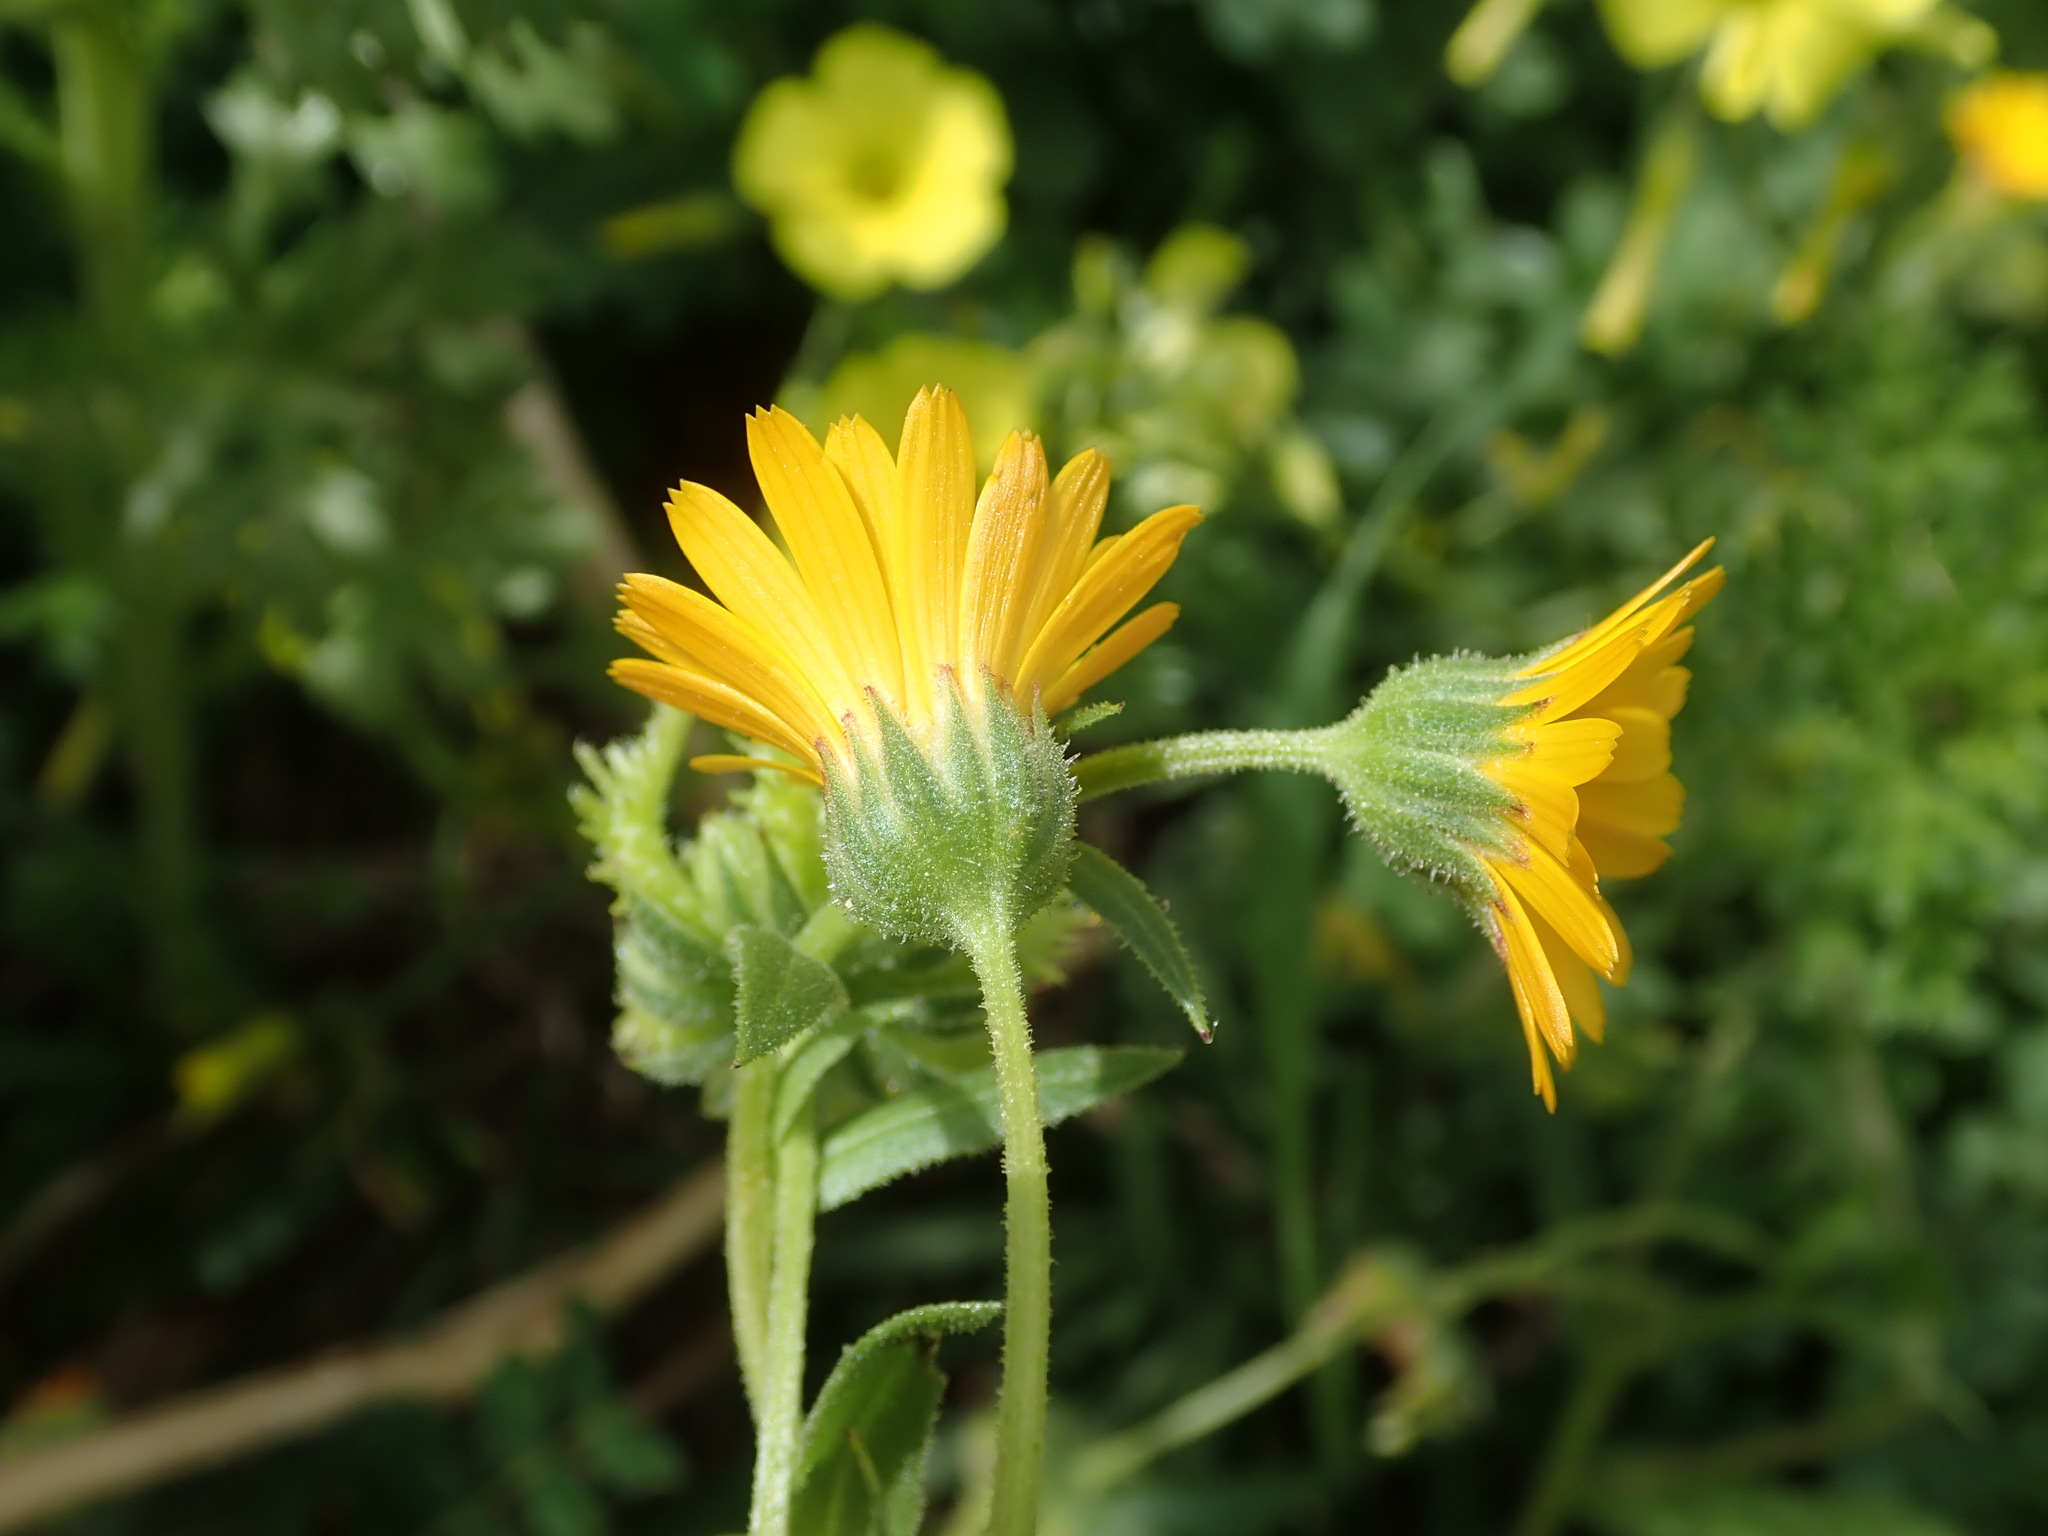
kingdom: Plantae
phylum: Tracheophyta
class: Magnoliopsida
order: Asterales
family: Asteraceae
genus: Calendula
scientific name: Calendula arvensis
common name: Field marigold
